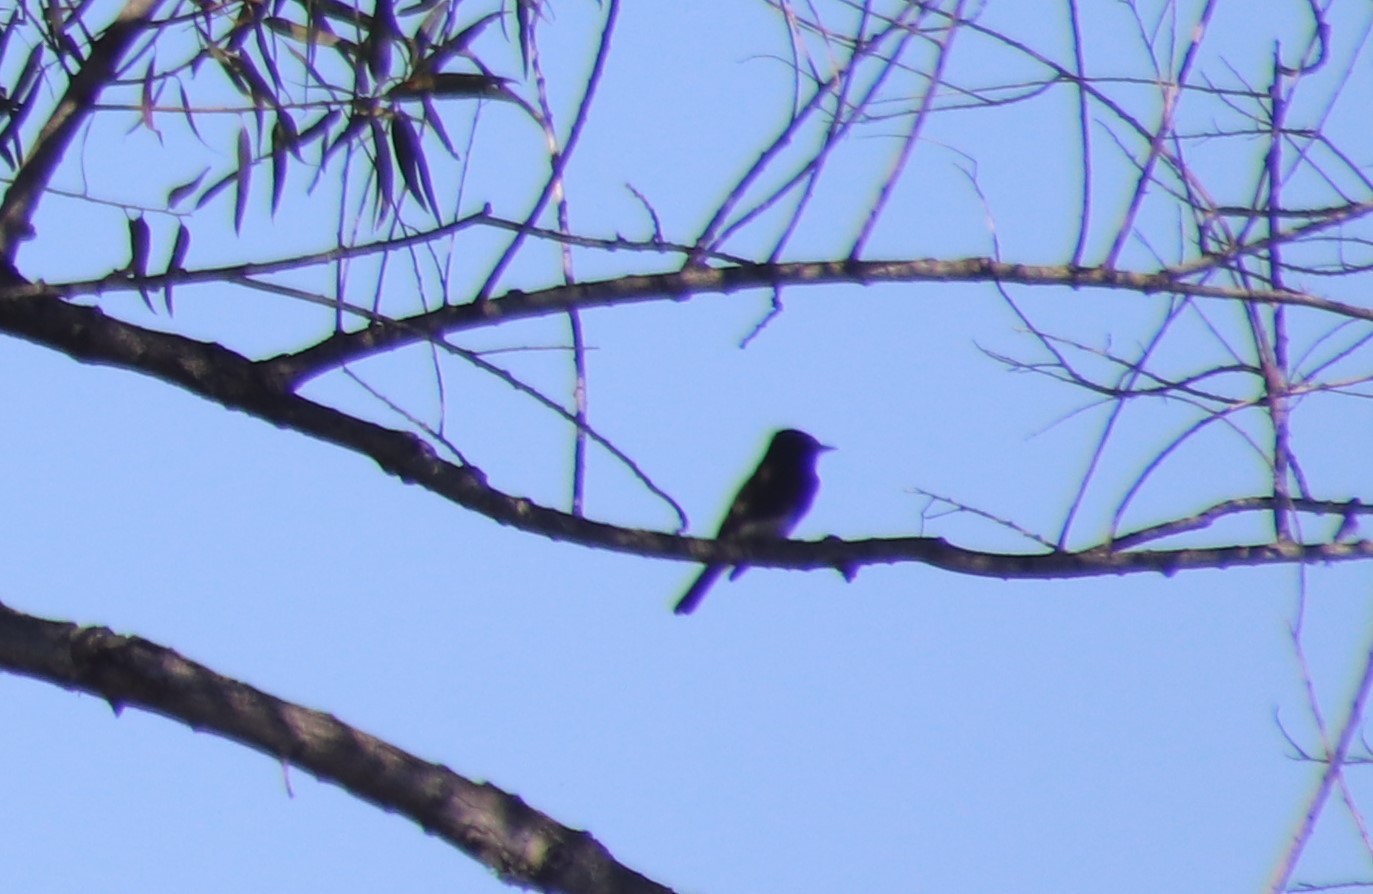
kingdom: Animalia
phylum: Chordata
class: Aves
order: Passeriformes
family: Tyrannidae
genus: Sayornis
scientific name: Sayornis nigricans
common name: Black phoebe
